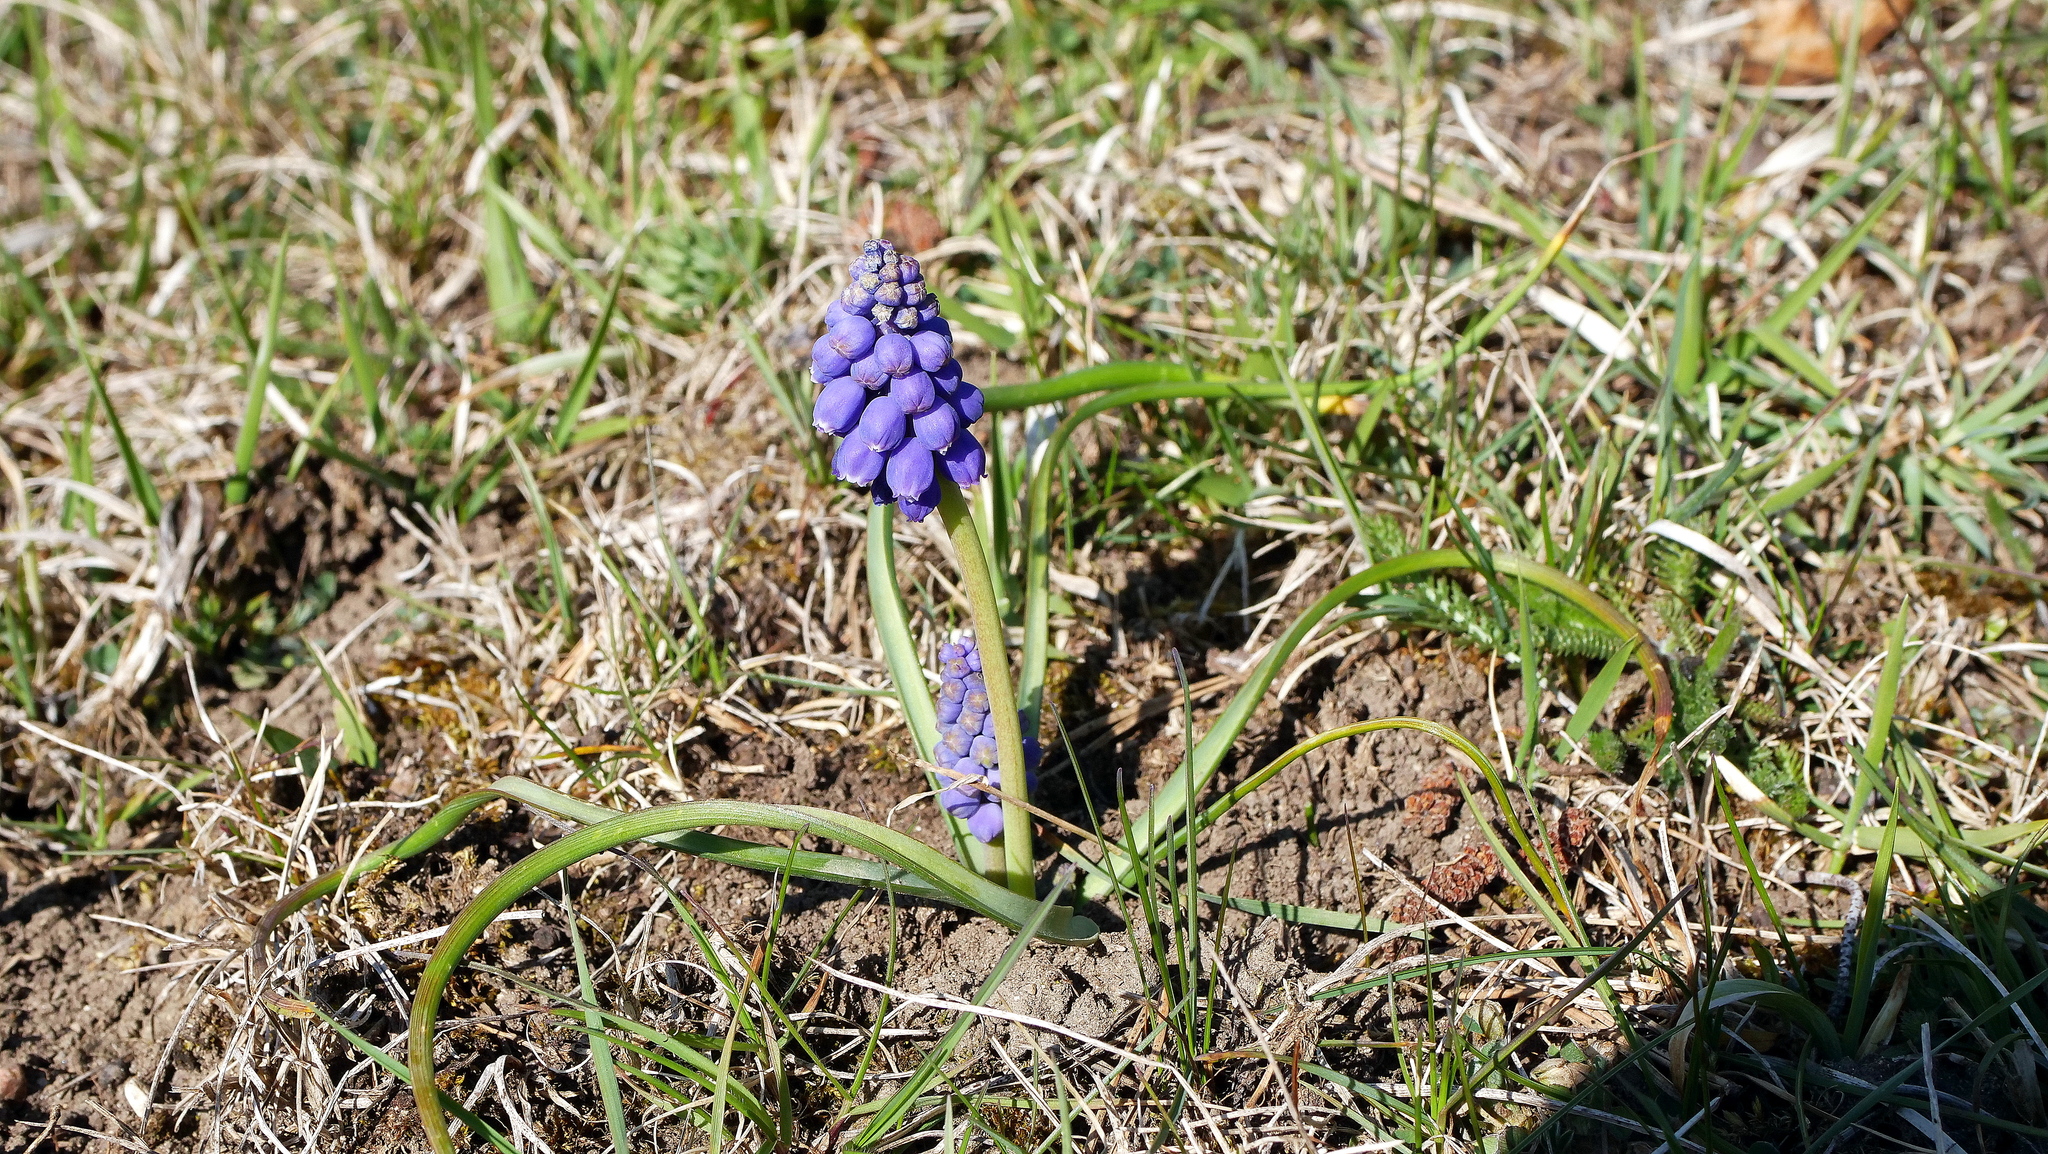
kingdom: Plantae
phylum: Tracheophyta
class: Liliopsida
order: Asparagales
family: Asparagaceae
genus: Muscari
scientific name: Muscari armeniacum
